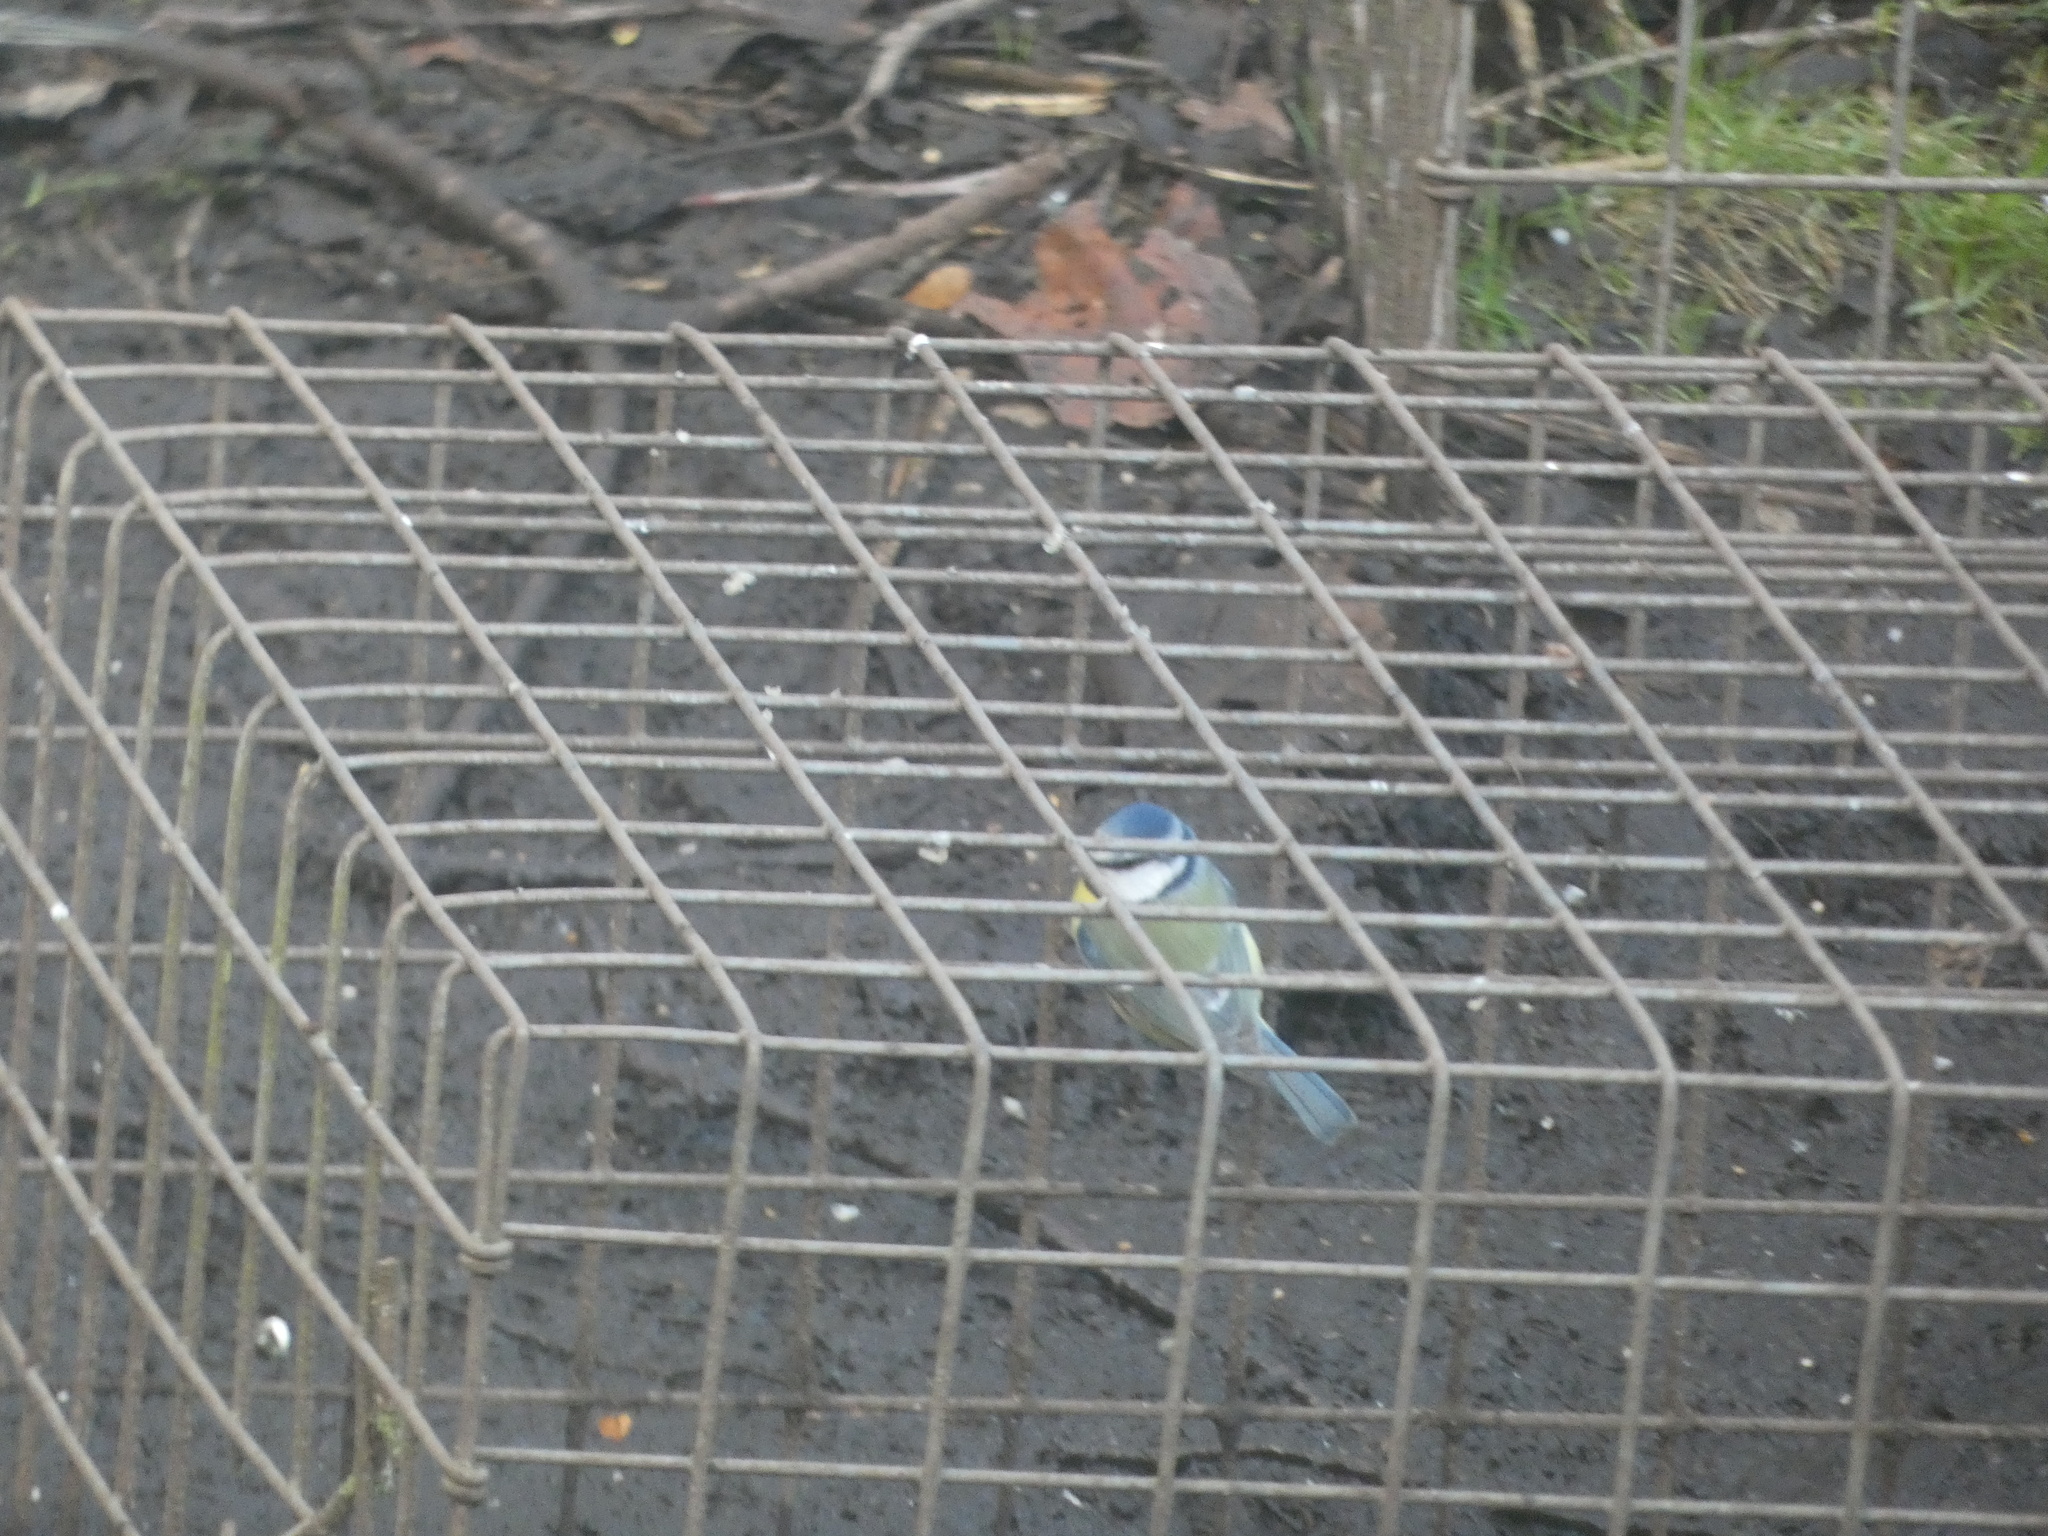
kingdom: Animalia
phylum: Chordata
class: Aves
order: Passeriformes
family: Paridae
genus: Cyanistes
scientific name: Cyanistes caeruleus
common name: Eurasian blue tit
